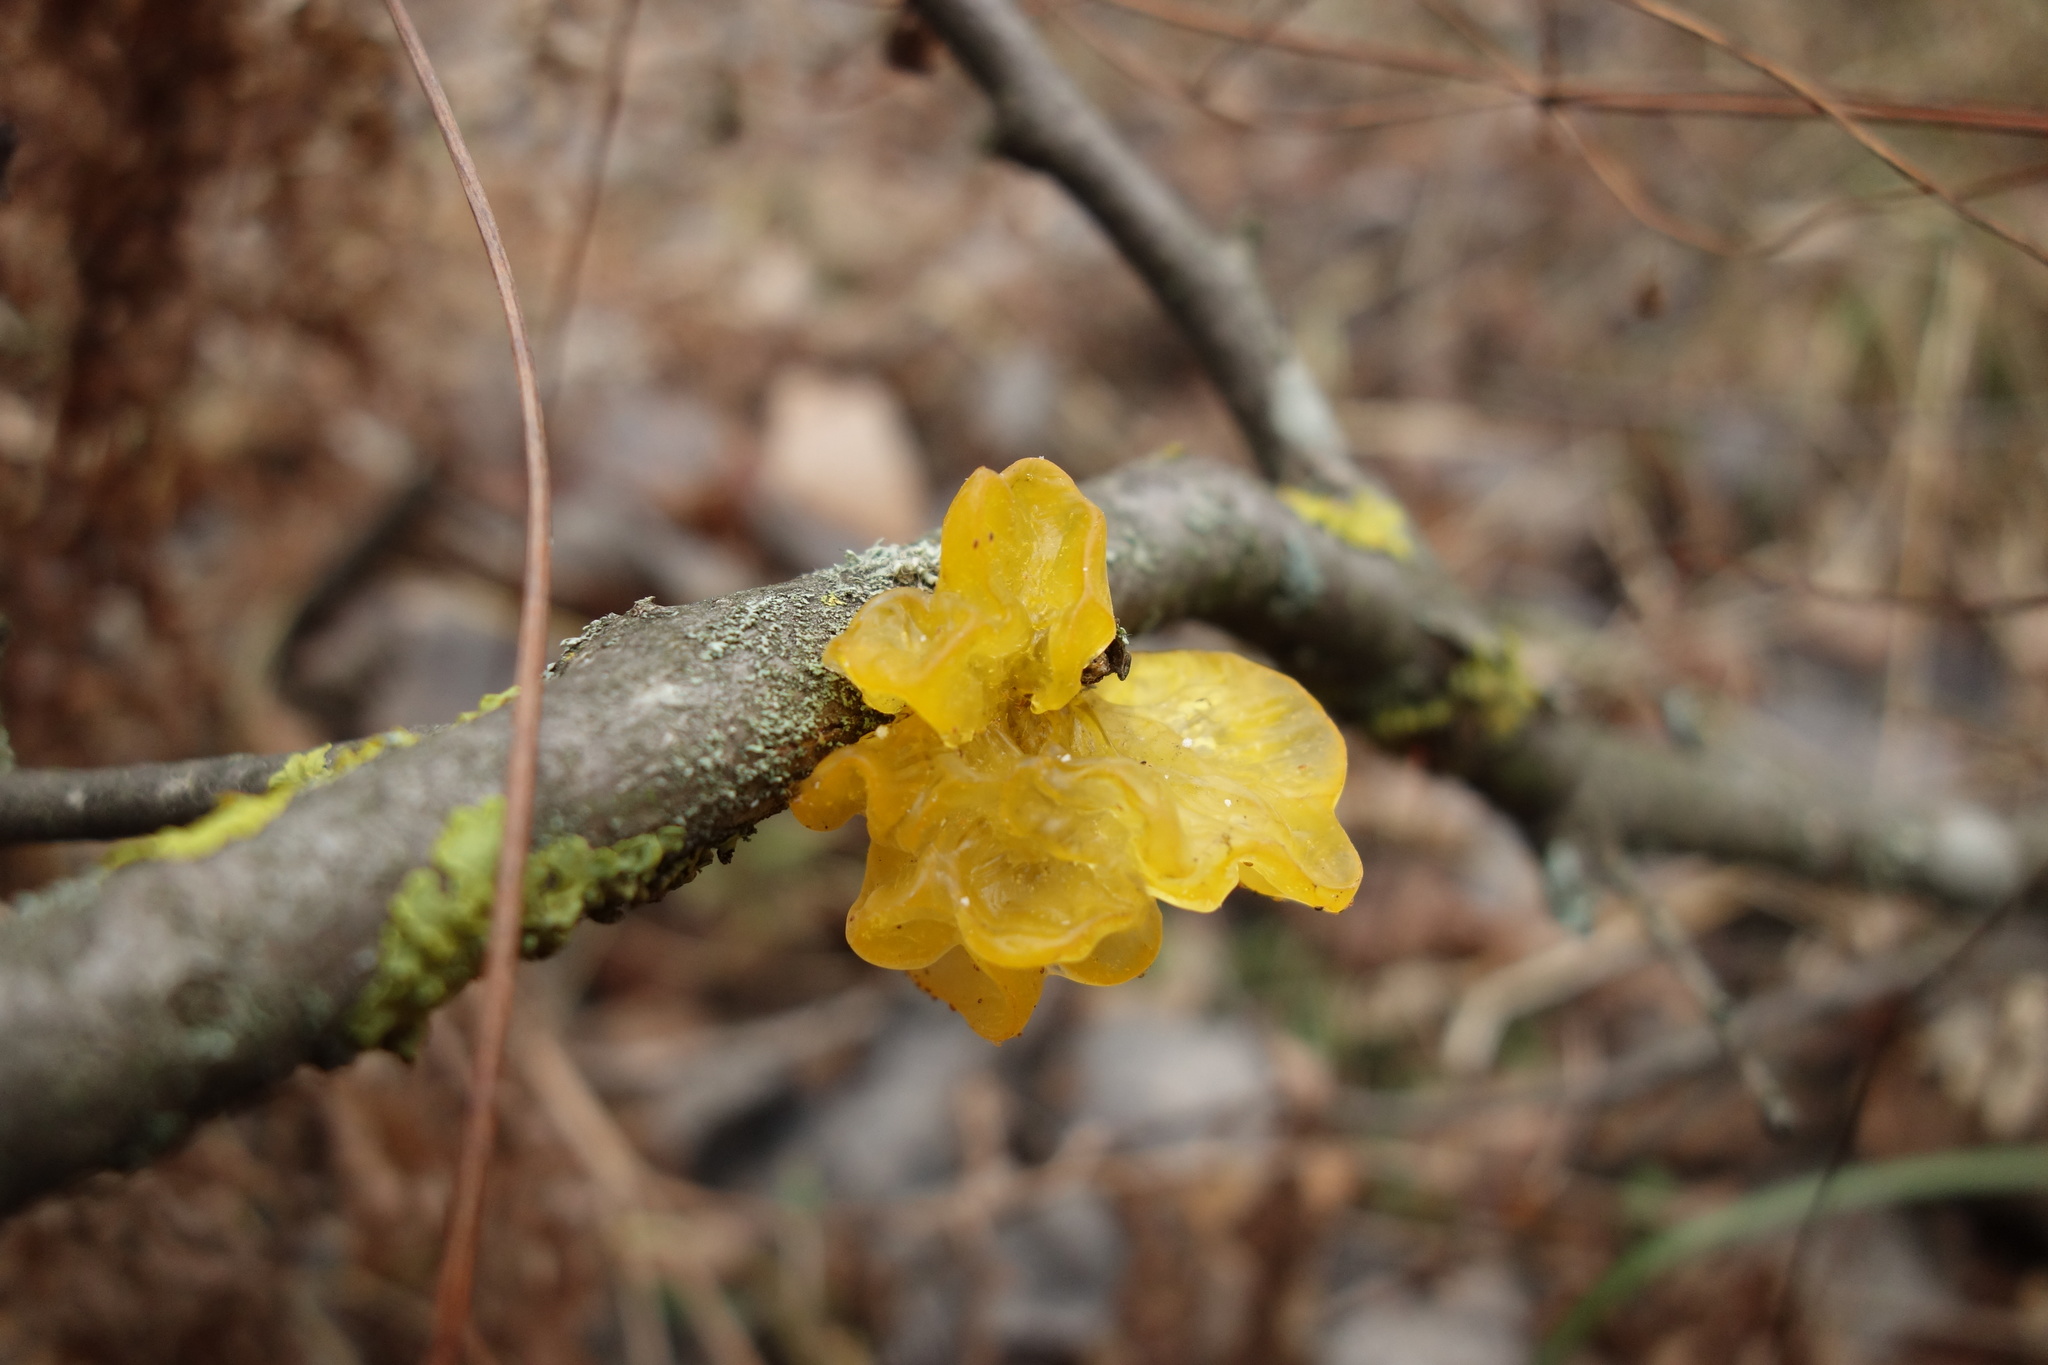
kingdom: Fungi
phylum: Basidiomycota
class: Tremellomycetes
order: Tremellales
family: Tremellaceae
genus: Tremella
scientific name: Tremella mesenterica
